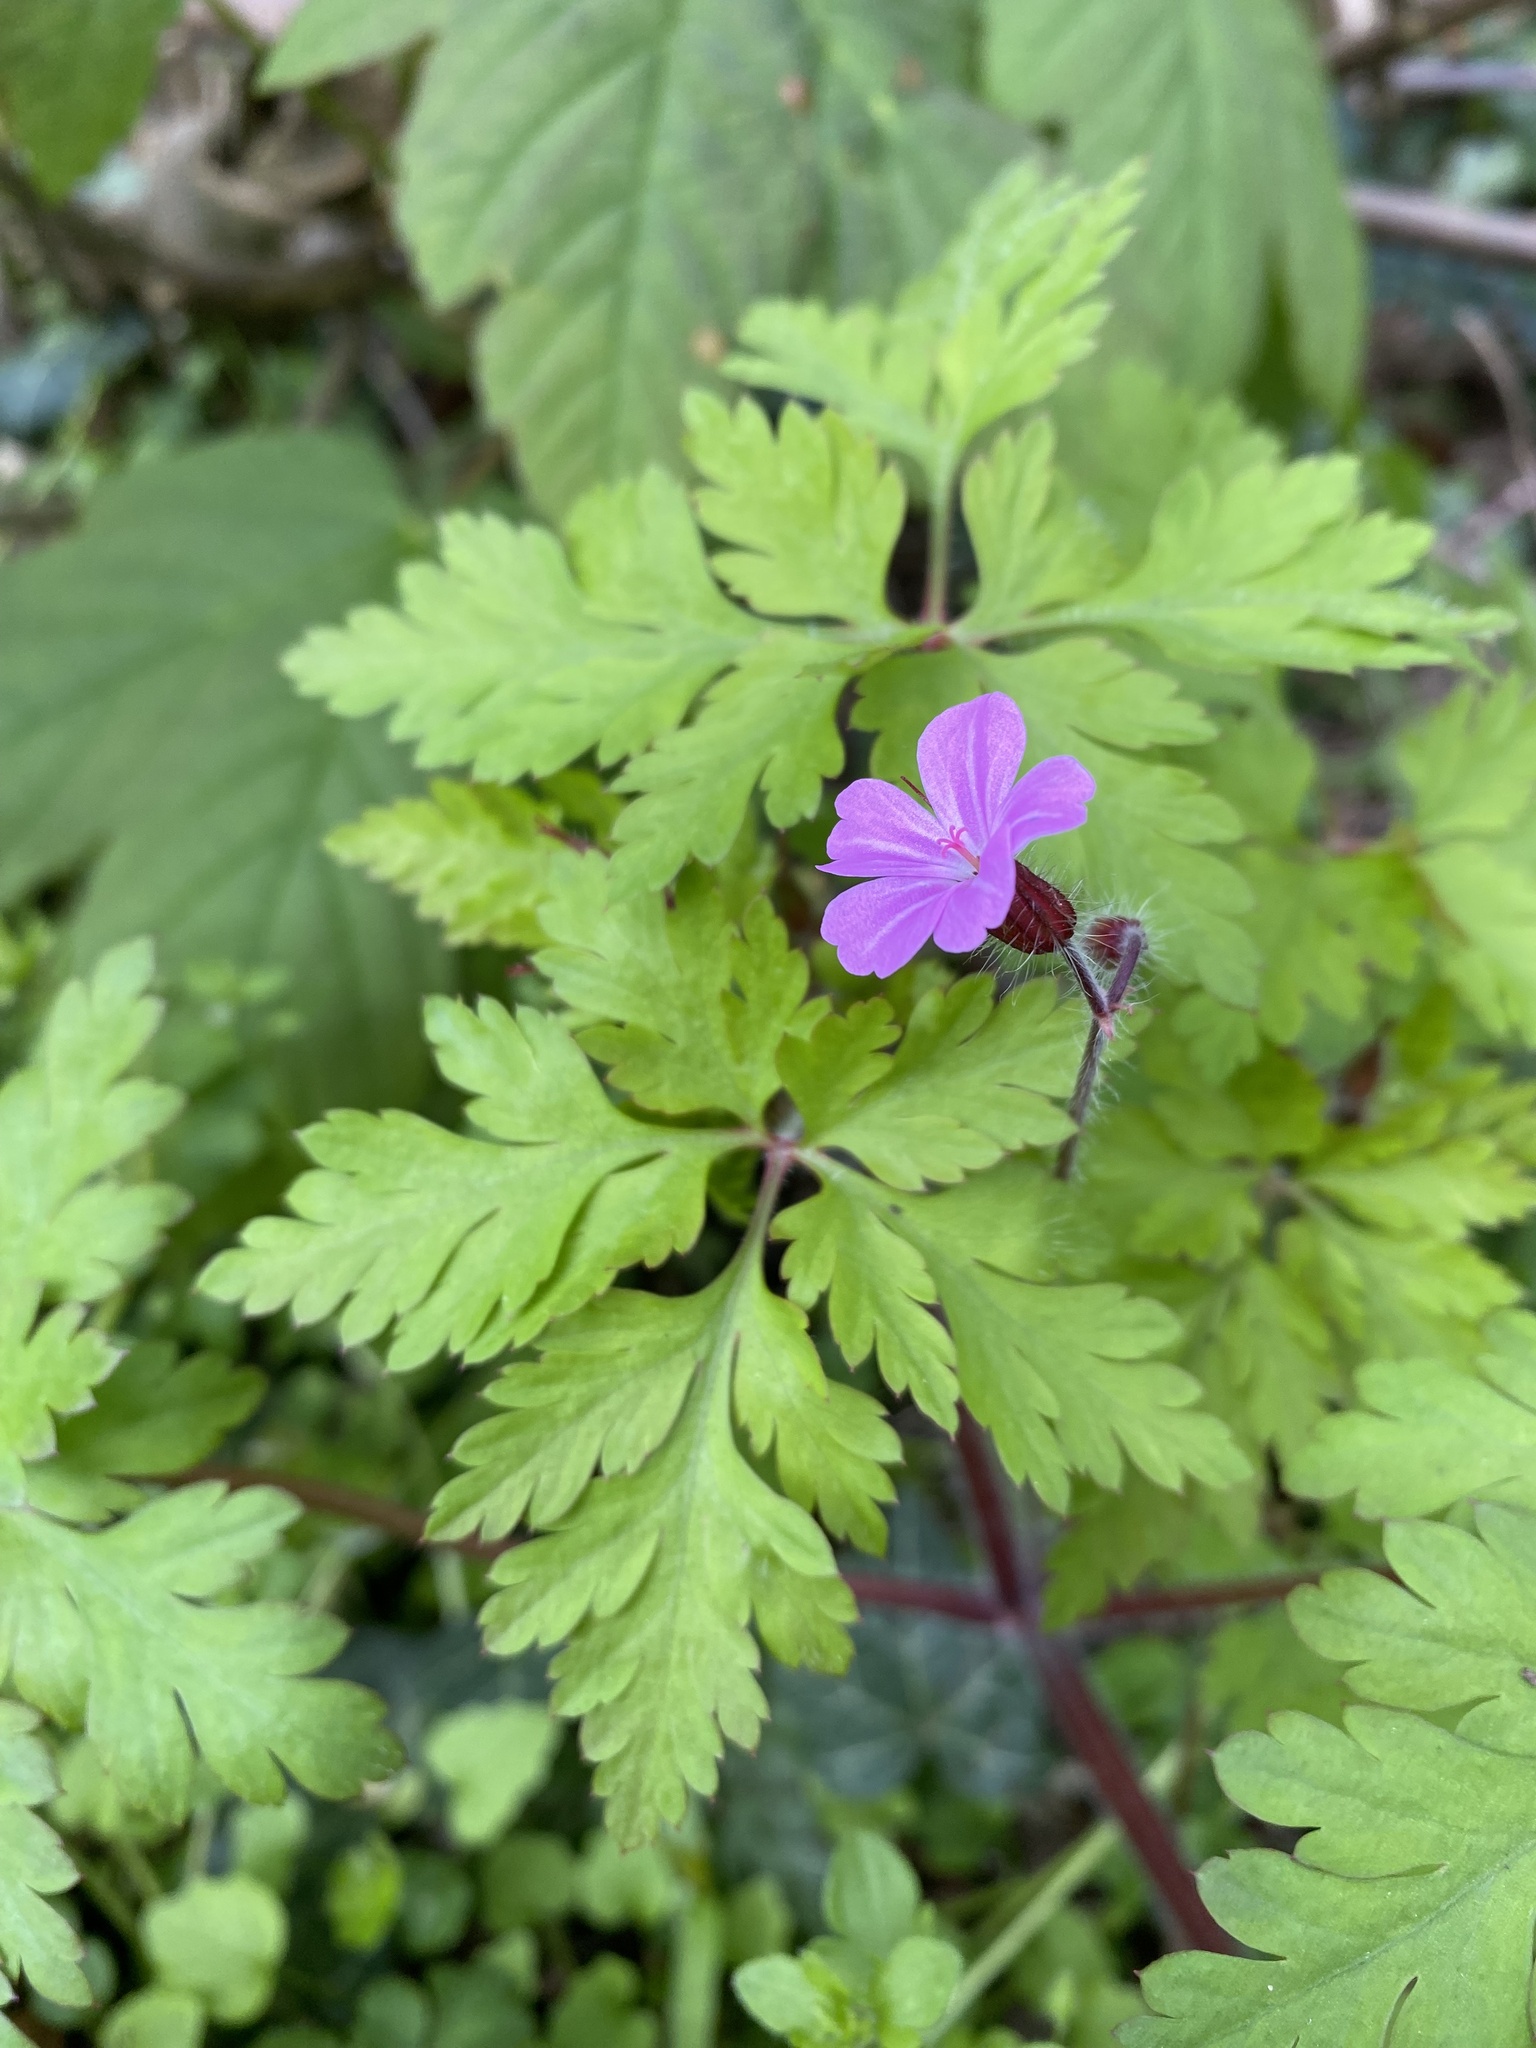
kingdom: Plantae
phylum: Tracheophyta
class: Magnoliopsida
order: Geraniales
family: Geraniaceae
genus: Geranium
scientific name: Geranium robertianum
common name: Herb-robert
